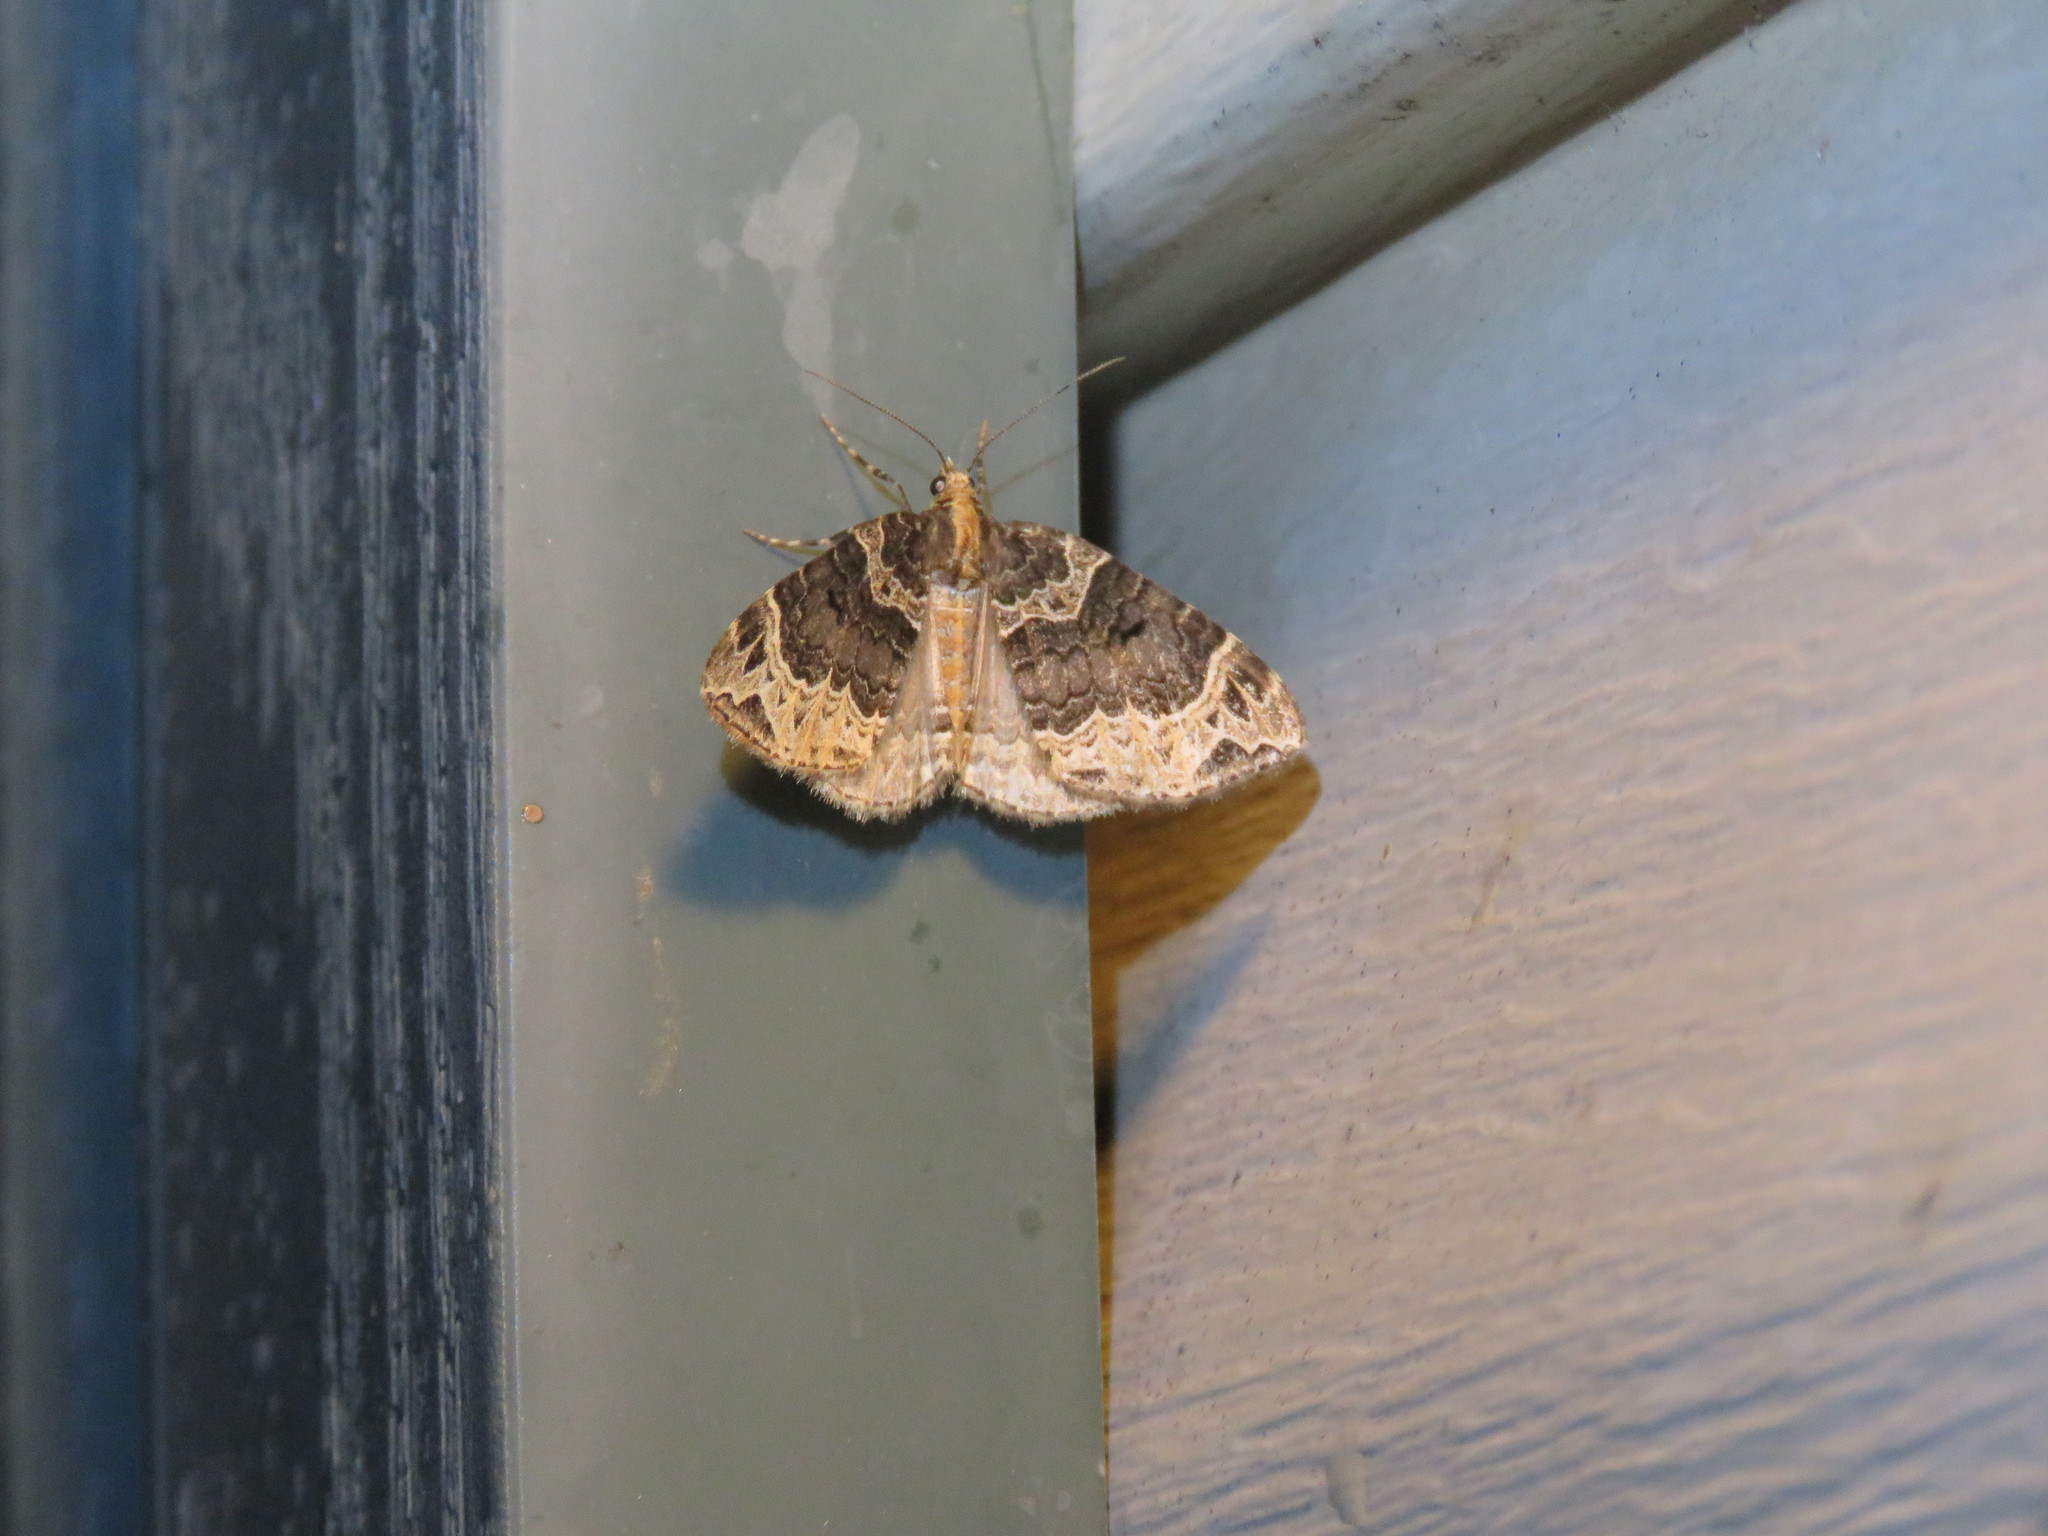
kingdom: Animalia
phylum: Arthropoda
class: Insecta
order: Lepidoptera
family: Geometridae
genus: Ecliptopera
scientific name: Ecliptopera silaceata
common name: Small phoenix
